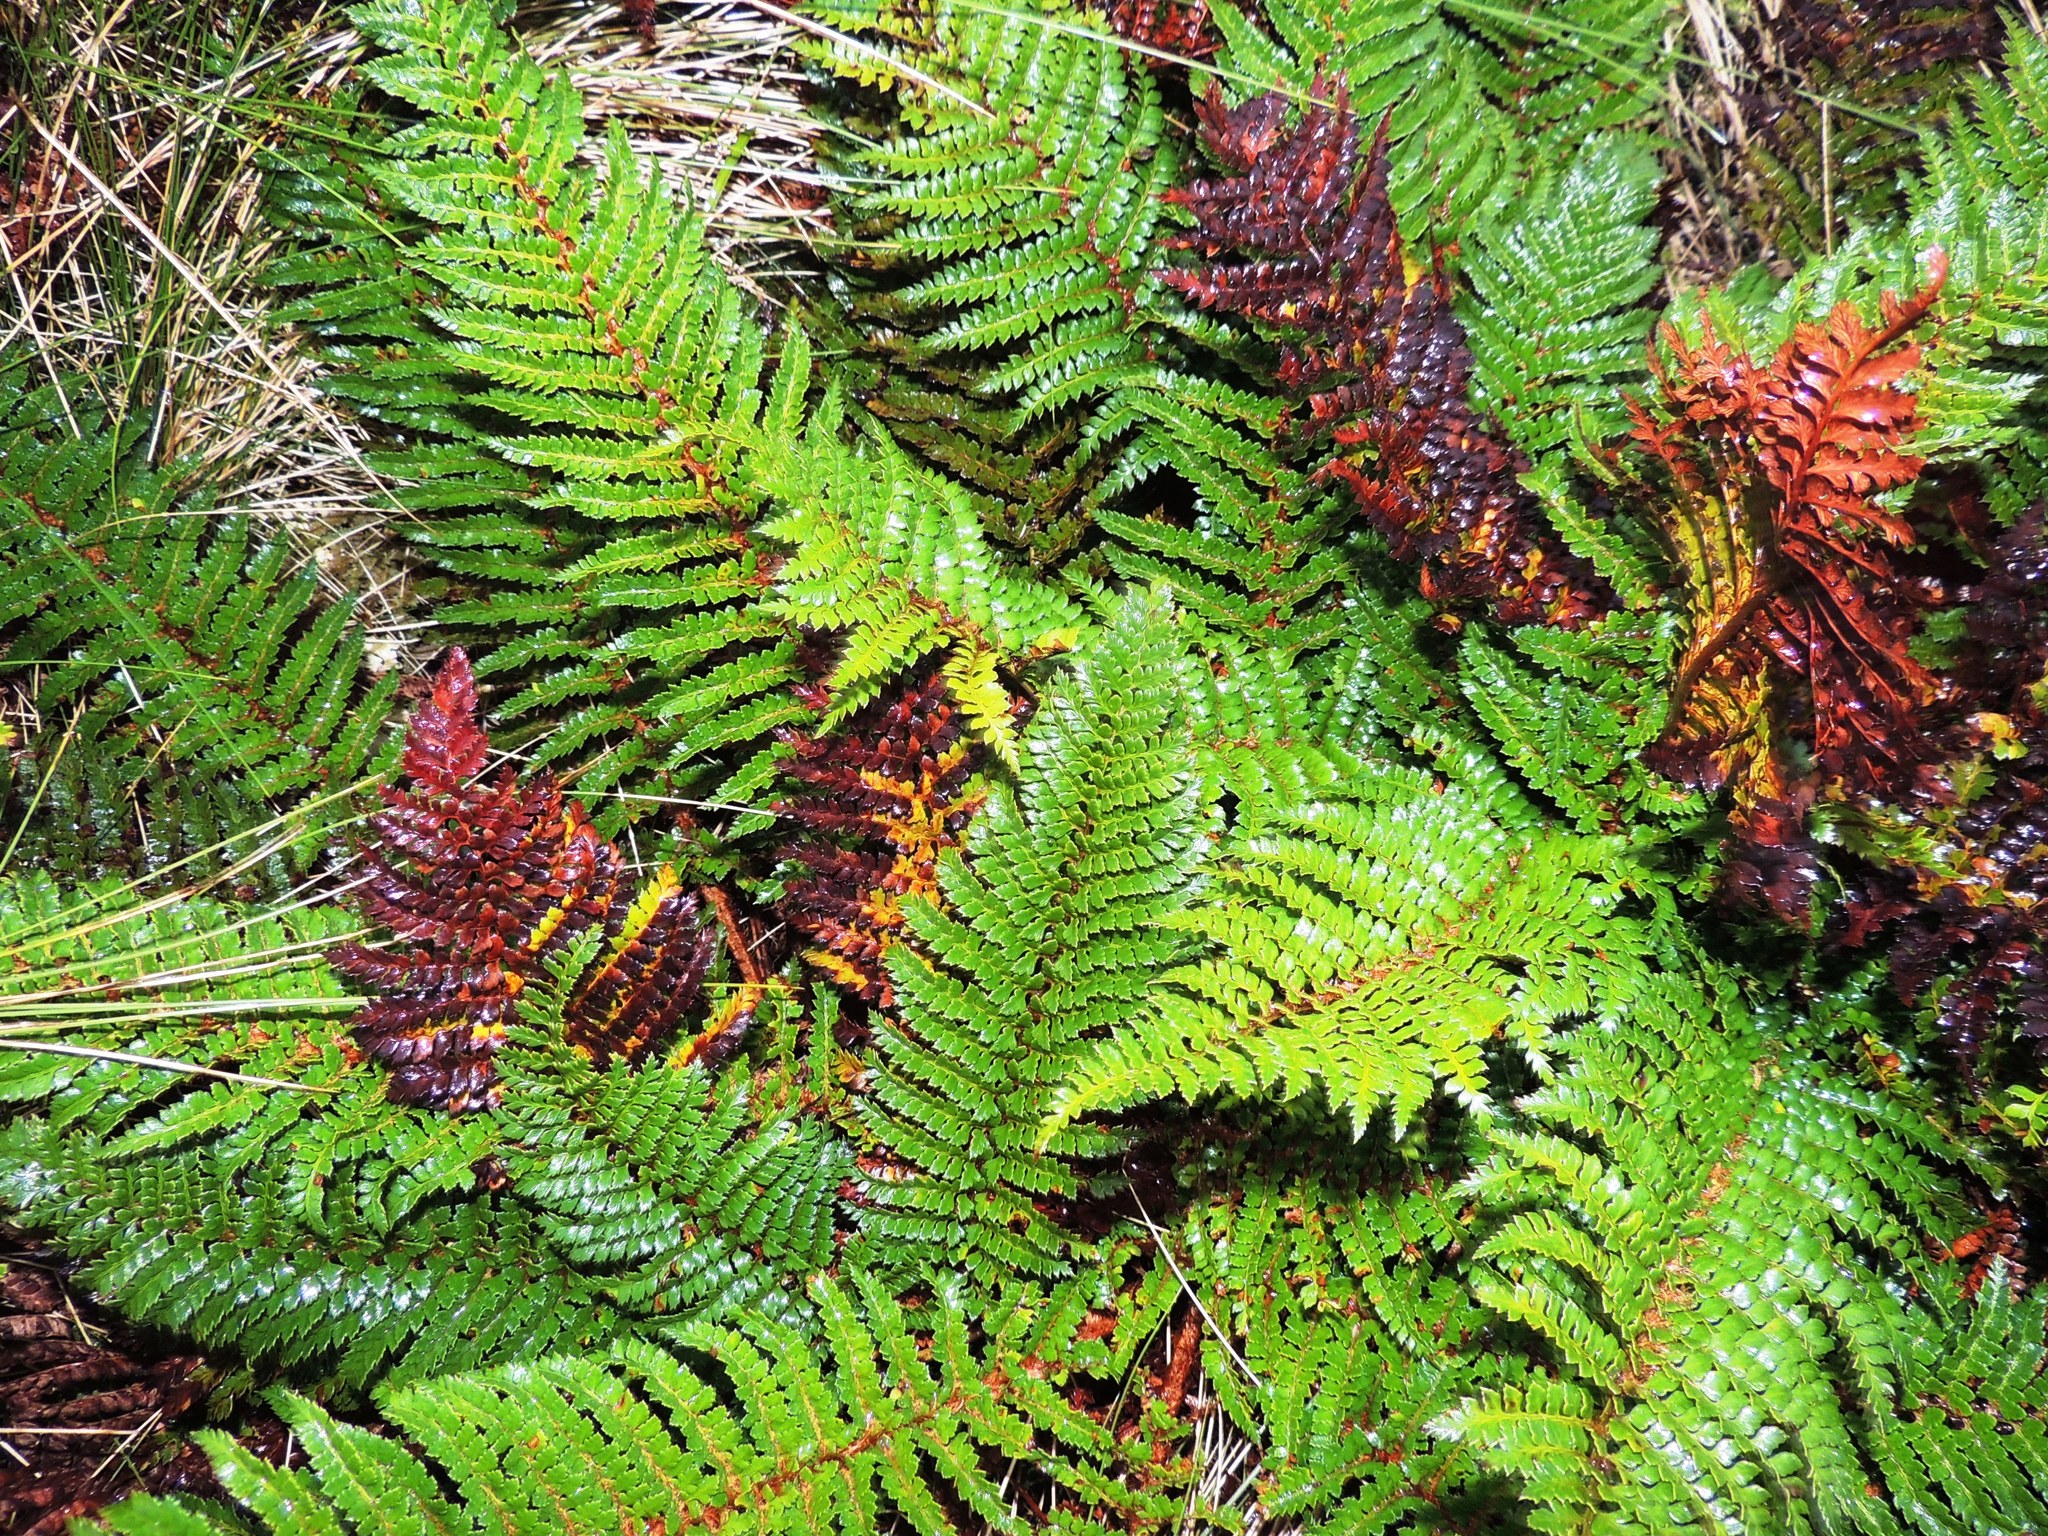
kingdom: Plantae
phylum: Tracheophyta
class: Polypodiopsida
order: Polypodiales
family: Dryopteridaceae
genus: Polystichum
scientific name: Polystichum vestitum
